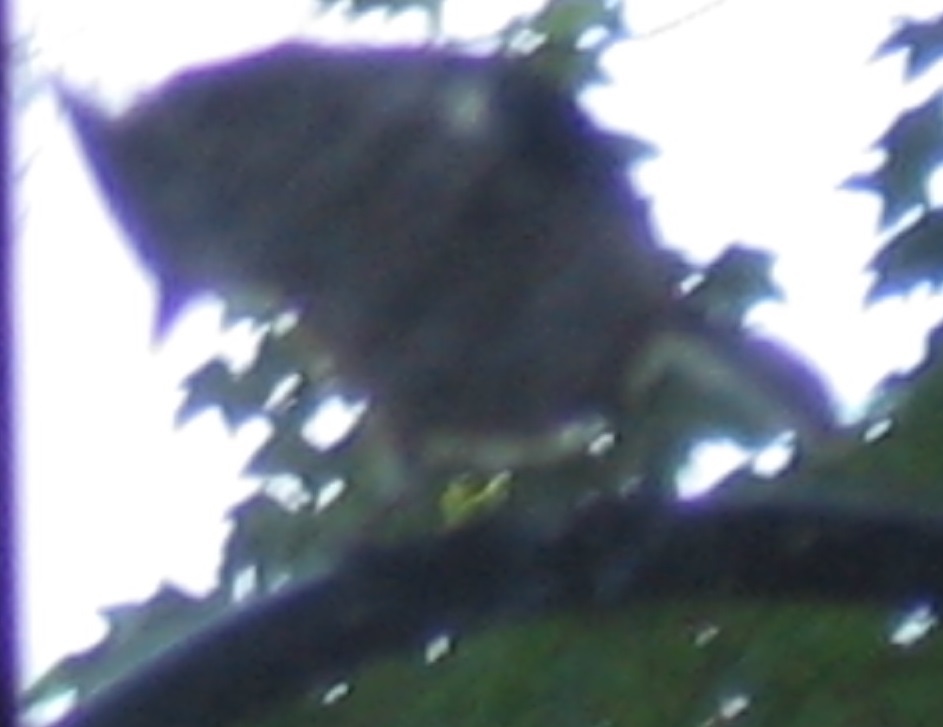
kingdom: Animalia
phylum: Chordata
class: Aves
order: Passeriformes
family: Paridae
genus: Baeolophus
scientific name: Baeolophus bicolor
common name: Tufted titmouse
